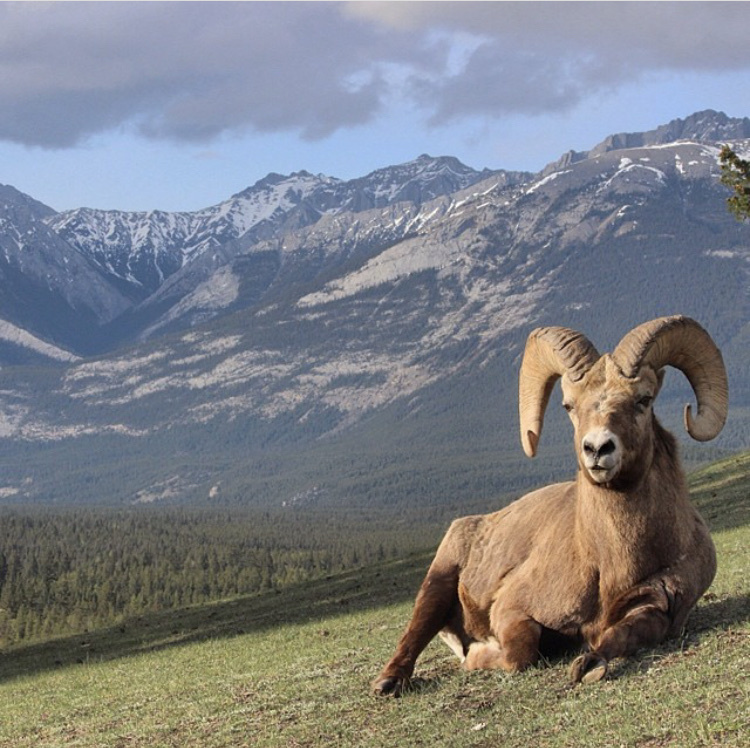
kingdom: Animalia
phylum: Chordata
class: Mammalia
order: Artiodactyla
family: Bovidae
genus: Ovis
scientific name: Ovis canadensis
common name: Bighorn sheep
